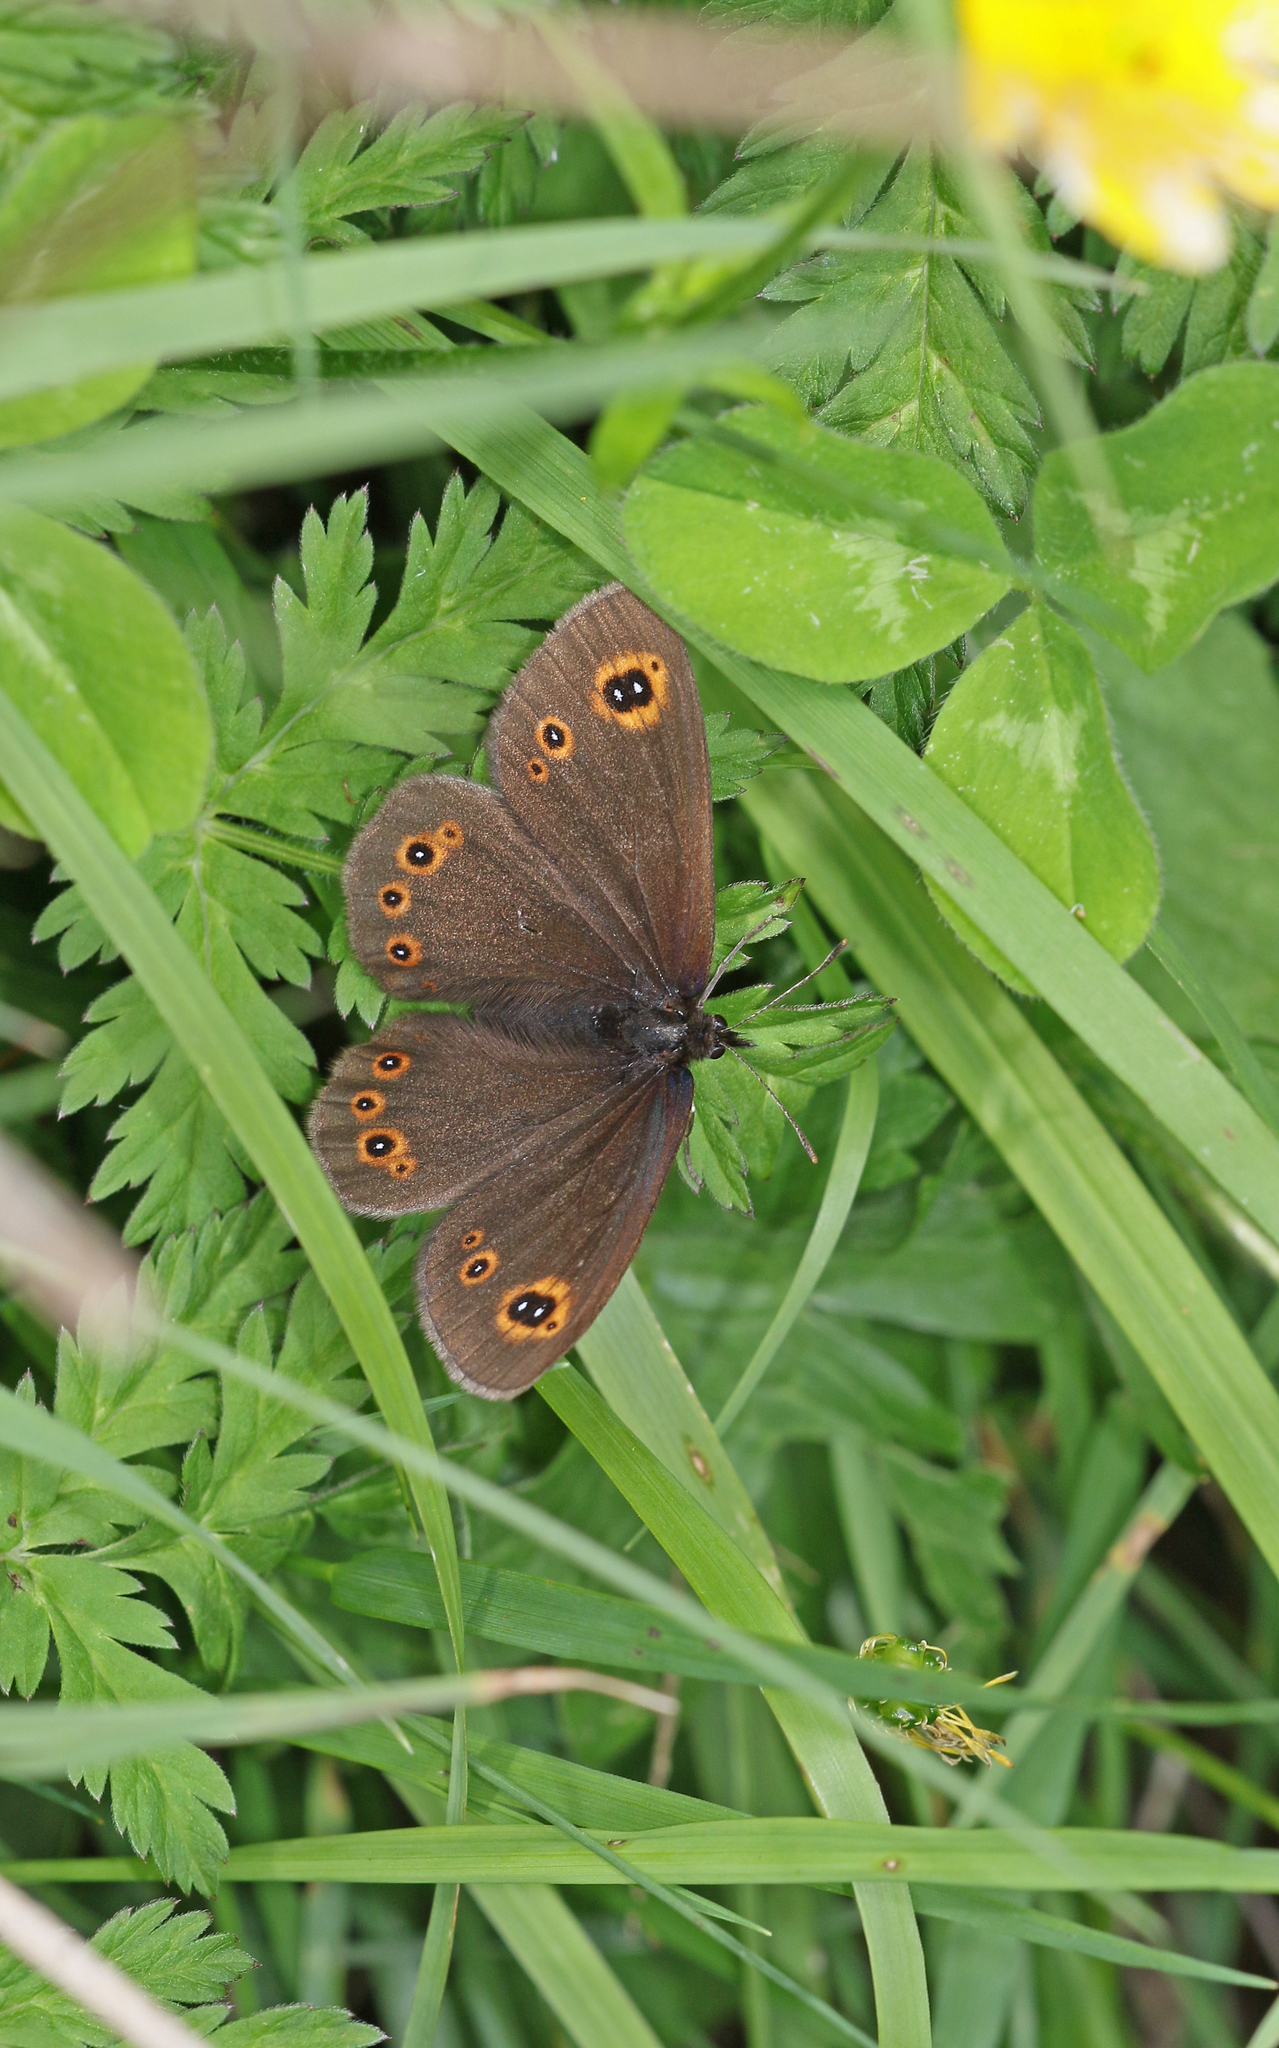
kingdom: Animalia
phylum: Arthropoda
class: Insecta
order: Lepidoptera
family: Nymphalidae
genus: Erebia
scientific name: Erebia medusa
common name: Woodland ringlet
